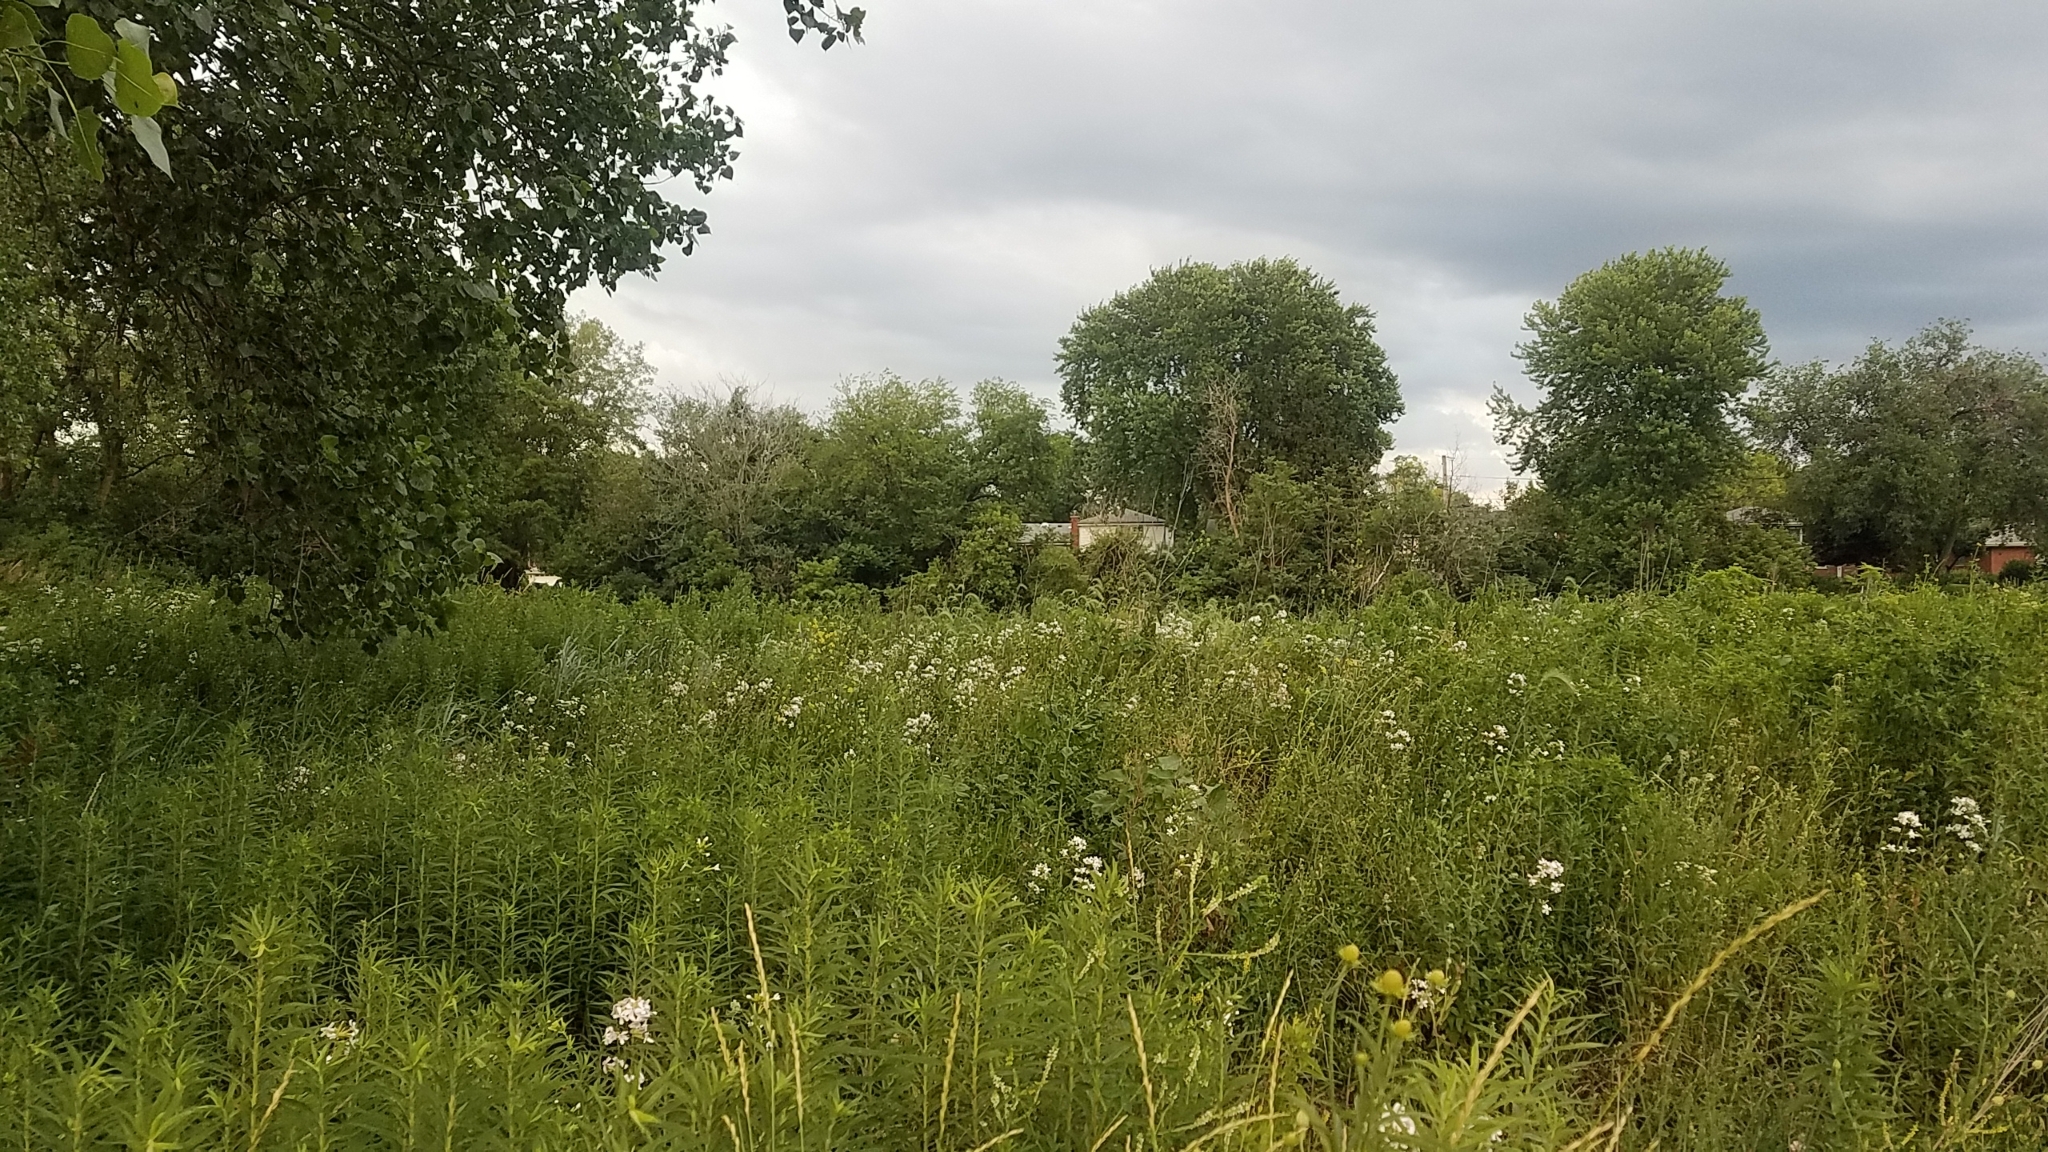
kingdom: Plantae
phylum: Tracheophyta
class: Magnoliopsida
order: Caryophyllales
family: Caryophyllaceae
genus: Saponaria
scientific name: Saponaria officinalis
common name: Soapwort
